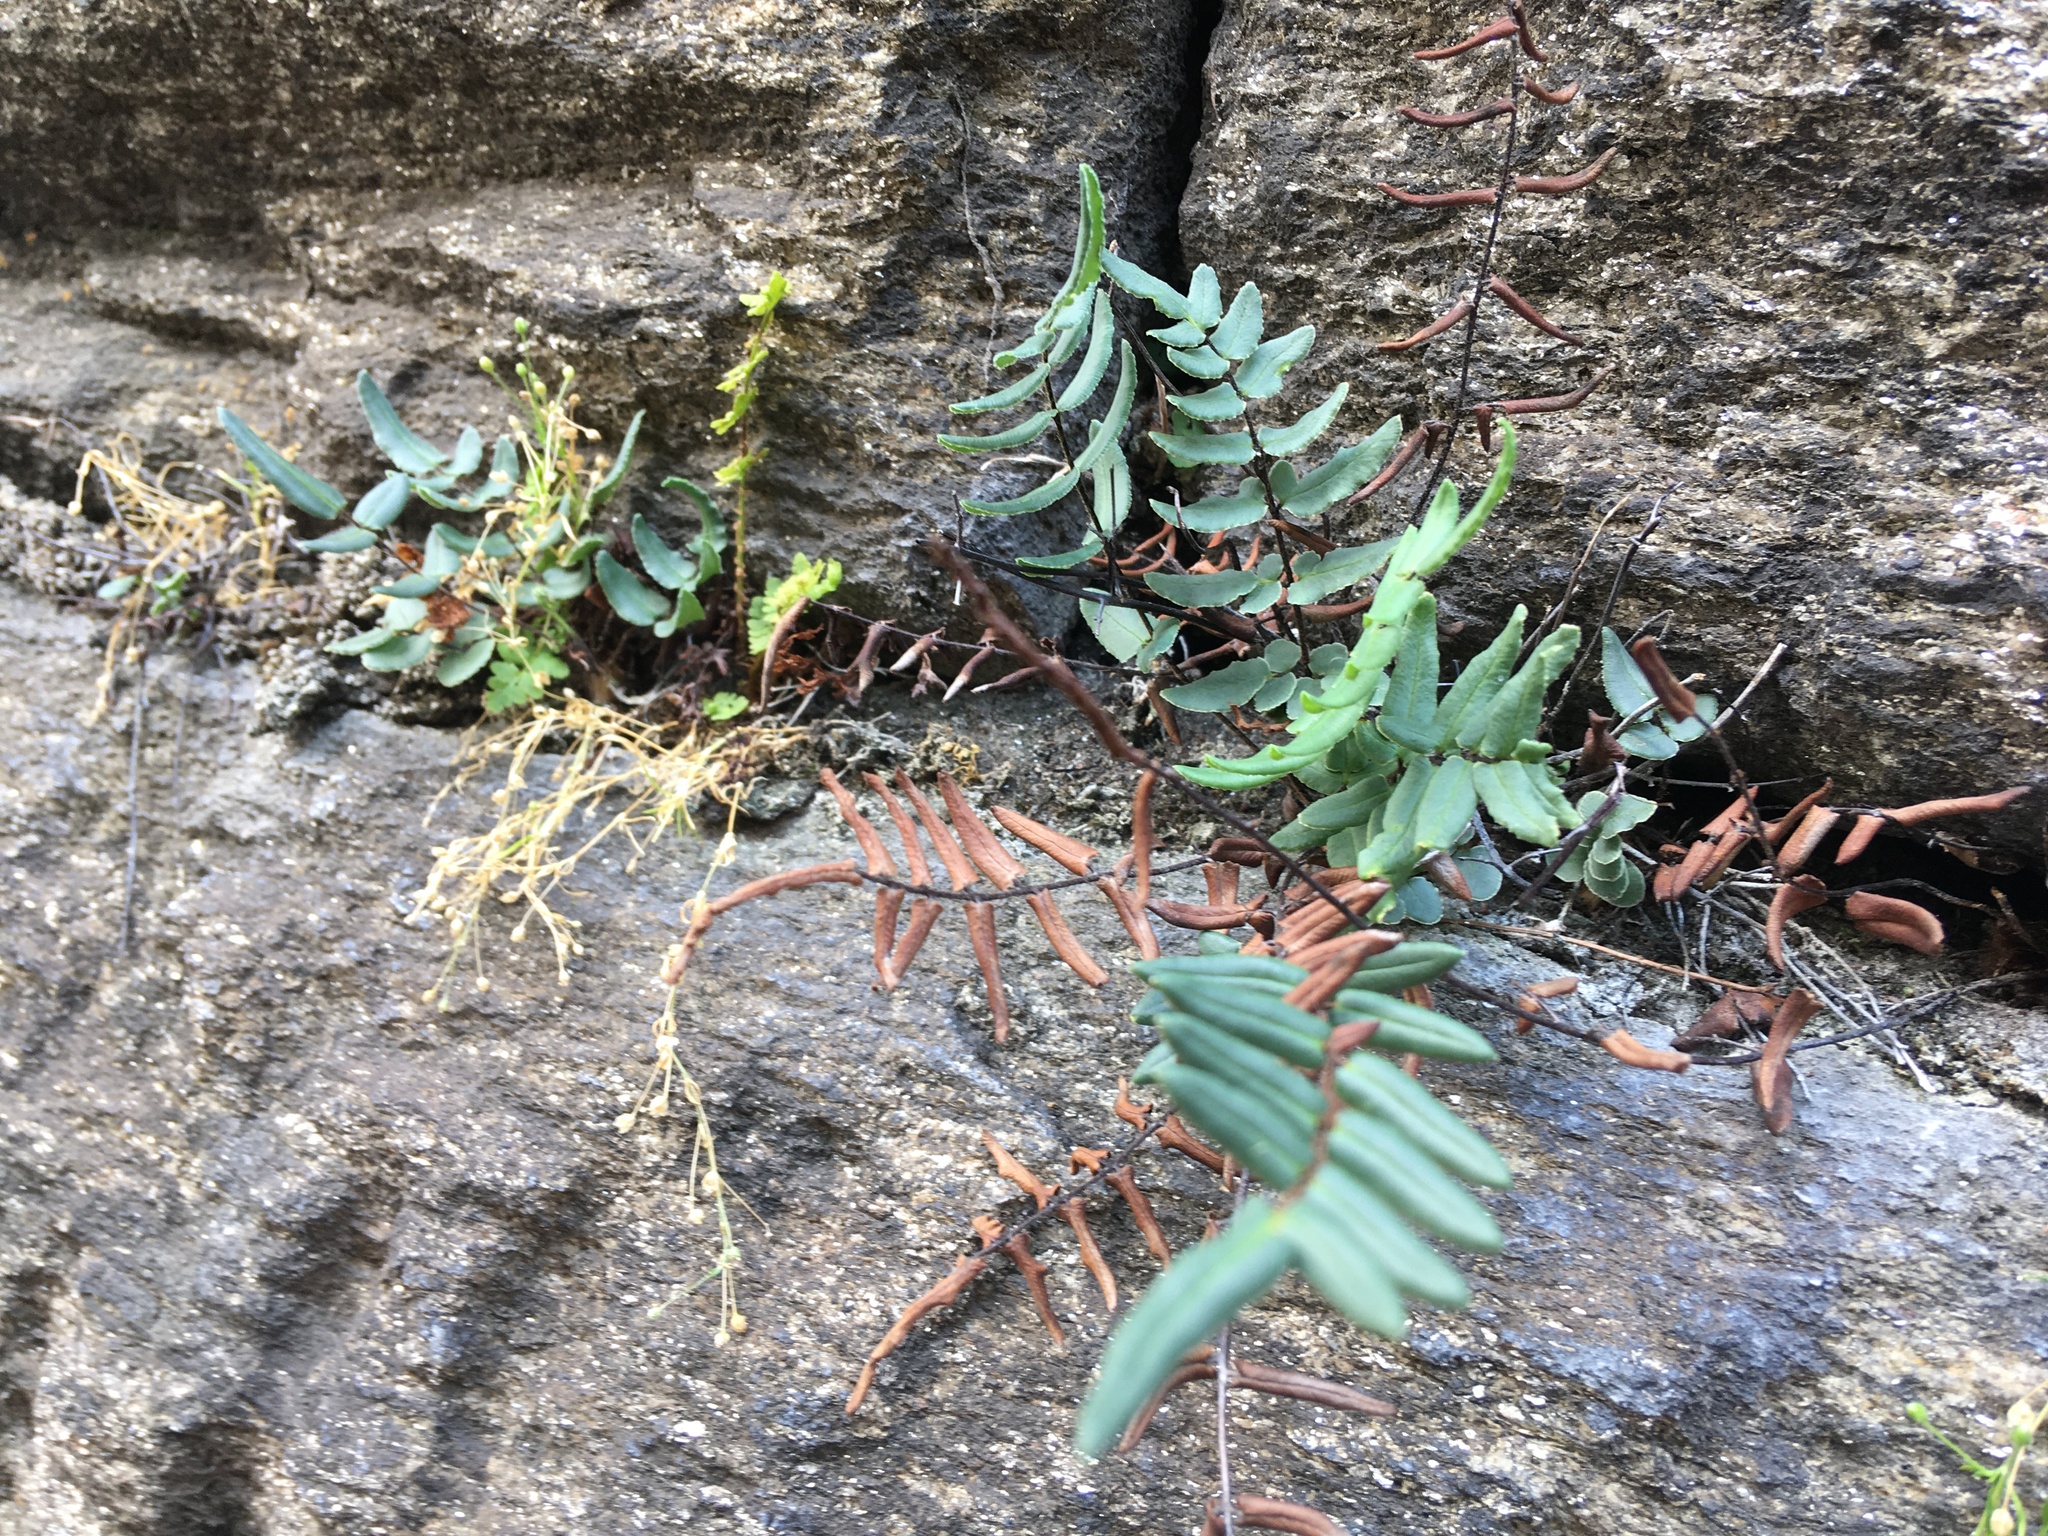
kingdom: Plantae
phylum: Tracheophyta
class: Polypodiopsida
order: Polypodiales
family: Pteridaceae
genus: Pellaea
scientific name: Pellaea atropurpurea
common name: Hairy cliffbrake
